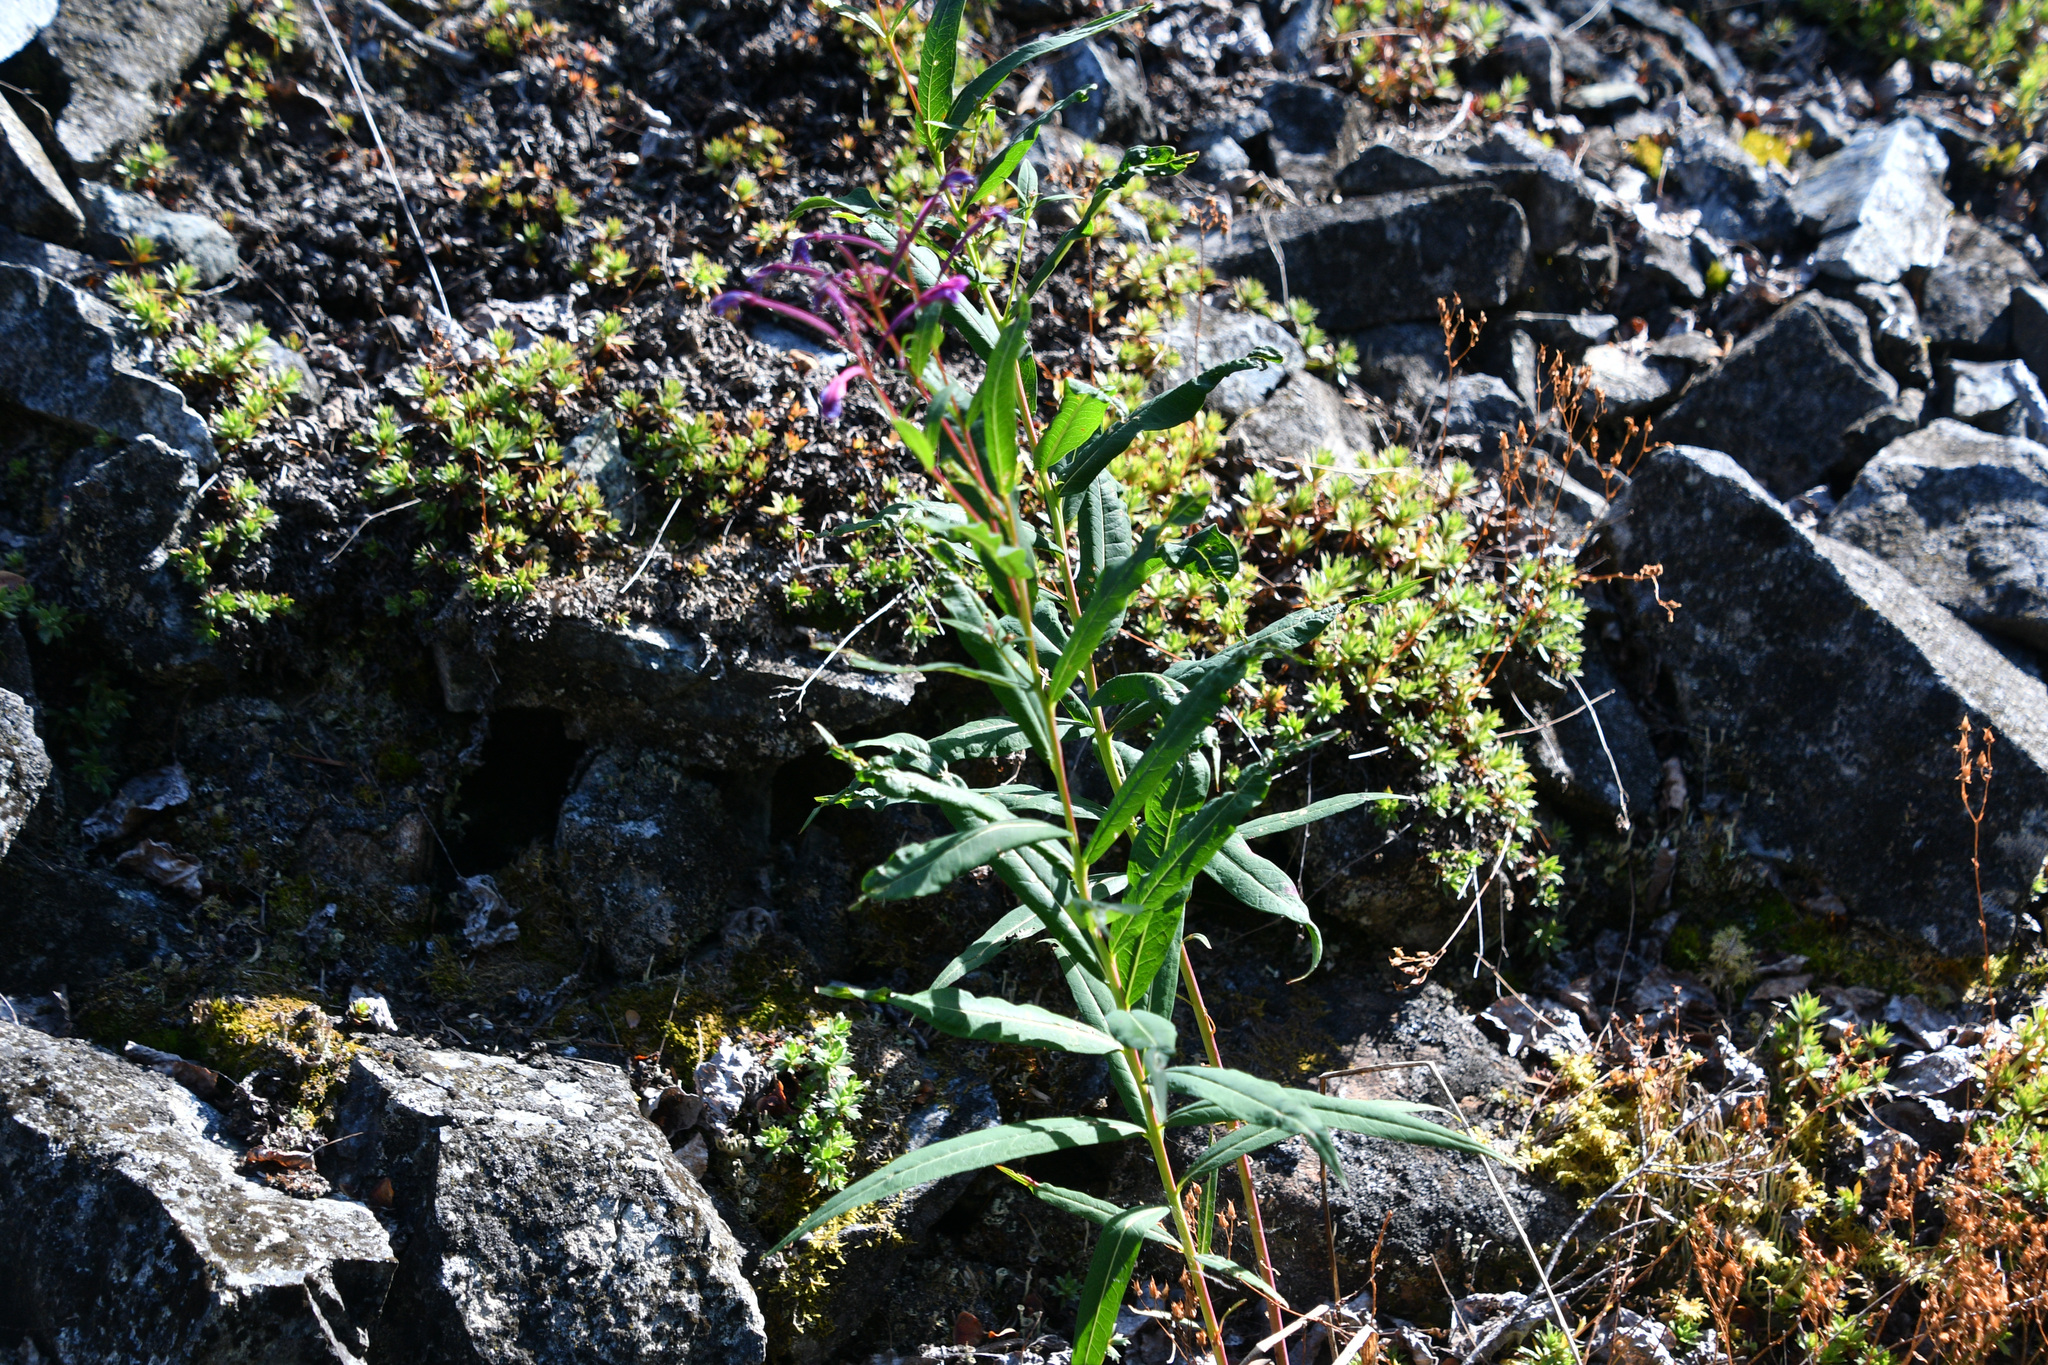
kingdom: Plantae
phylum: Tracheophyta
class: Magnoliopsida
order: Myrtales
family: Onagraceae
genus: Chamaenerion
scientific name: Chamaenerion angustifolium
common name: Fireweed
